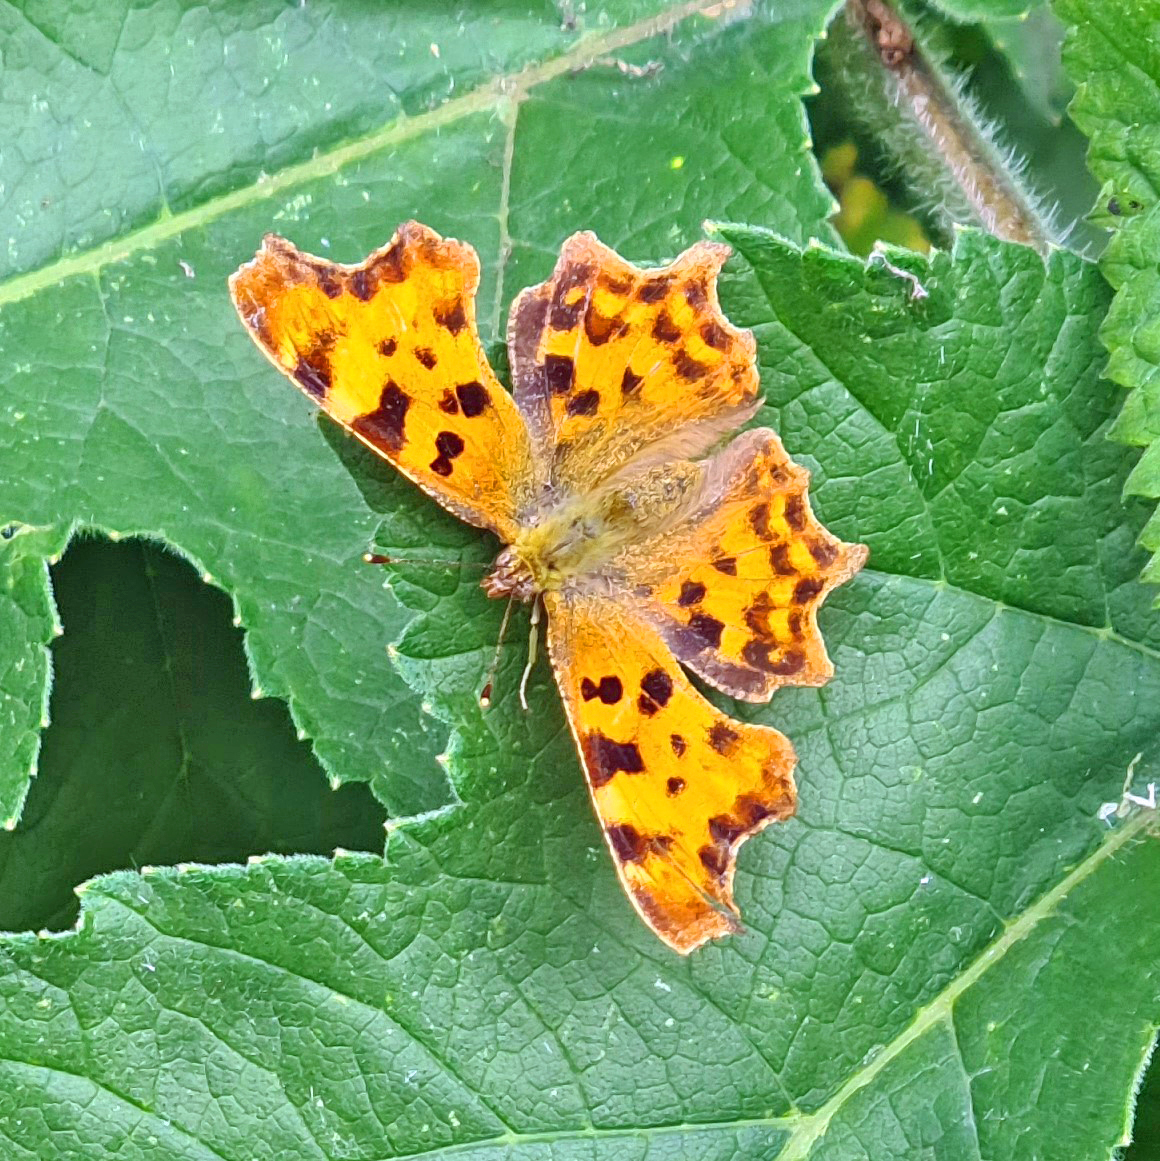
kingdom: Animalia
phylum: Arthropoda
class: Insecta
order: Lepidoptera
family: Nymphalidae
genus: Polygonia
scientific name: Polygonia c-album
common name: Comma
